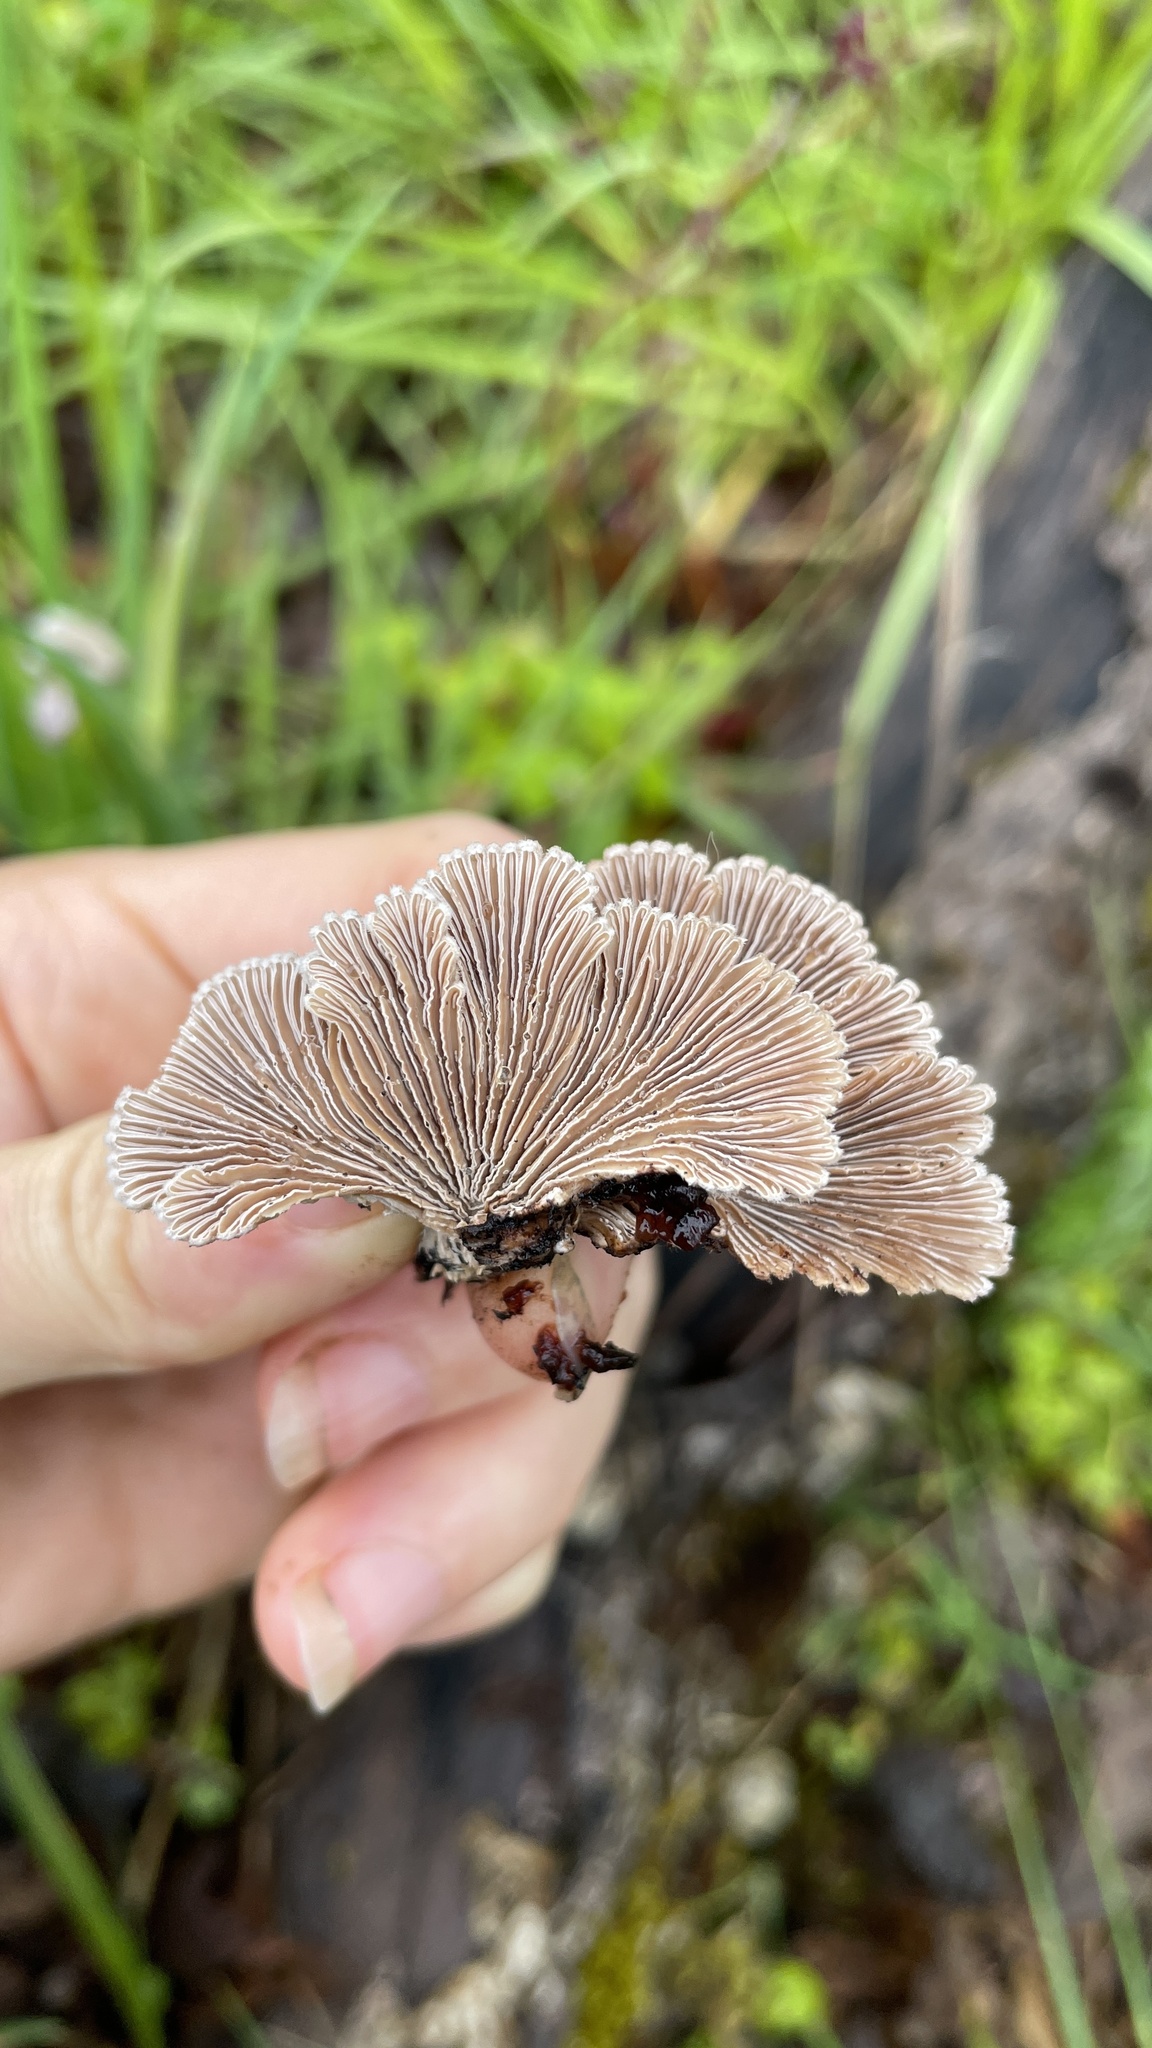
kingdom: Fungi
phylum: Basidiomycota
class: Agaricomycetes
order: Agaricales
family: Schizophyllaceae
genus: Schizophyllum
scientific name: Schizophyllum commune
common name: Common porecrust
